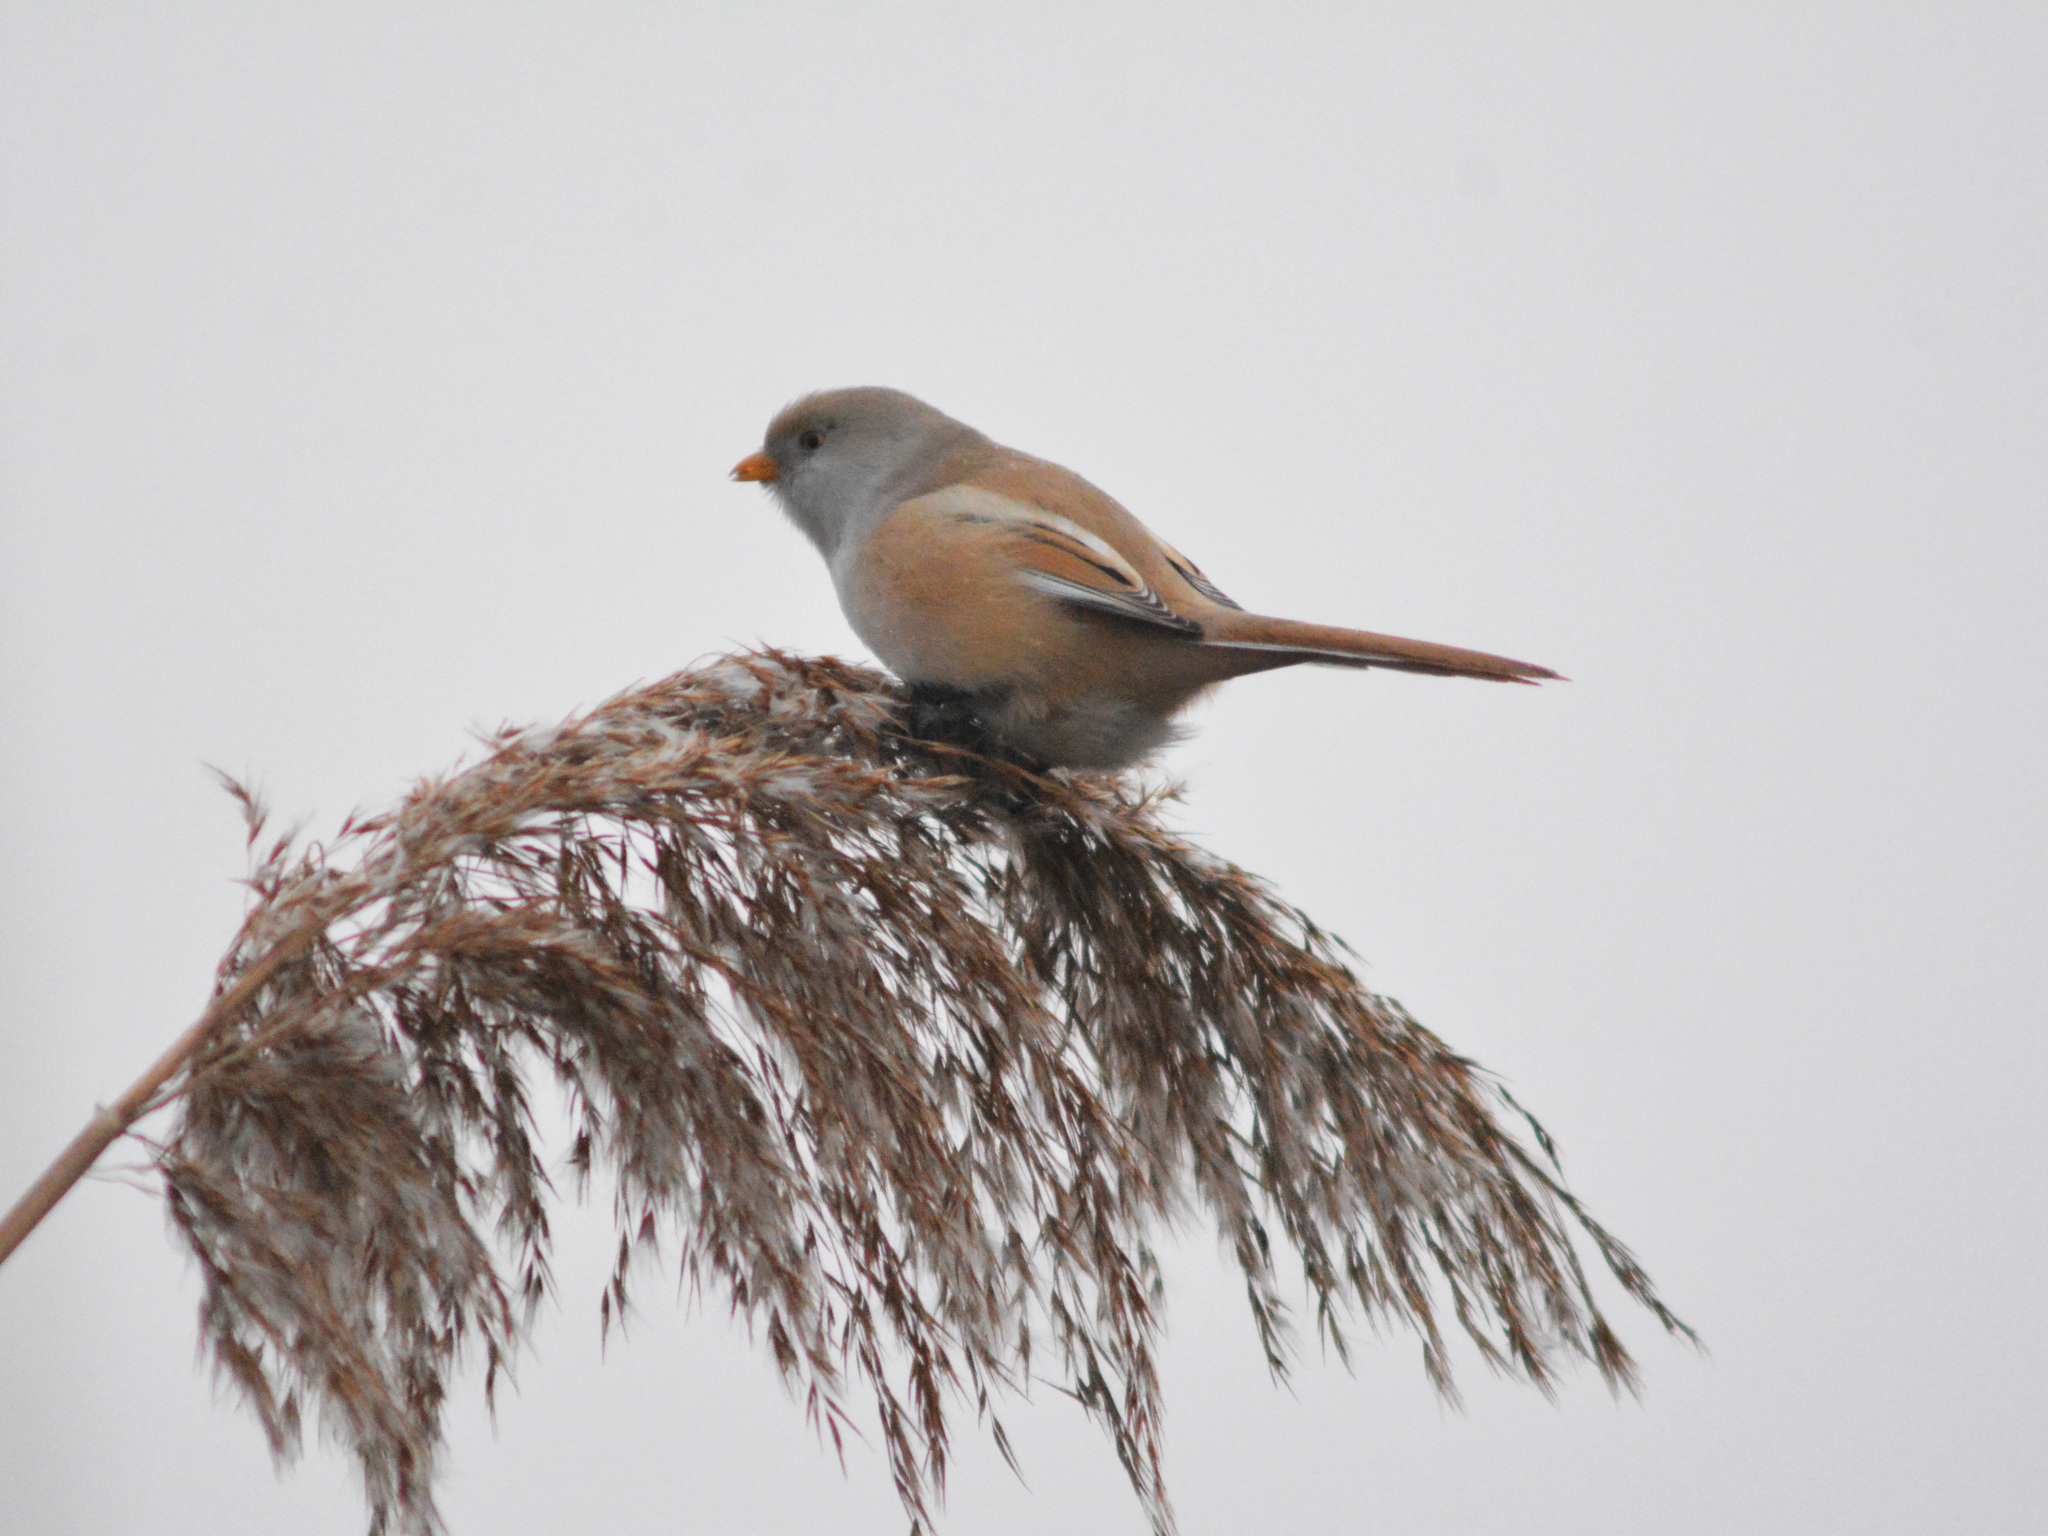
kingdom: Animalia
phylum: Chordata
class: Aves
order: Passeriformes
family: Panuridae
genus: Panurus
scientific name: Panurus biarmicus
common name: Bearded reedling
